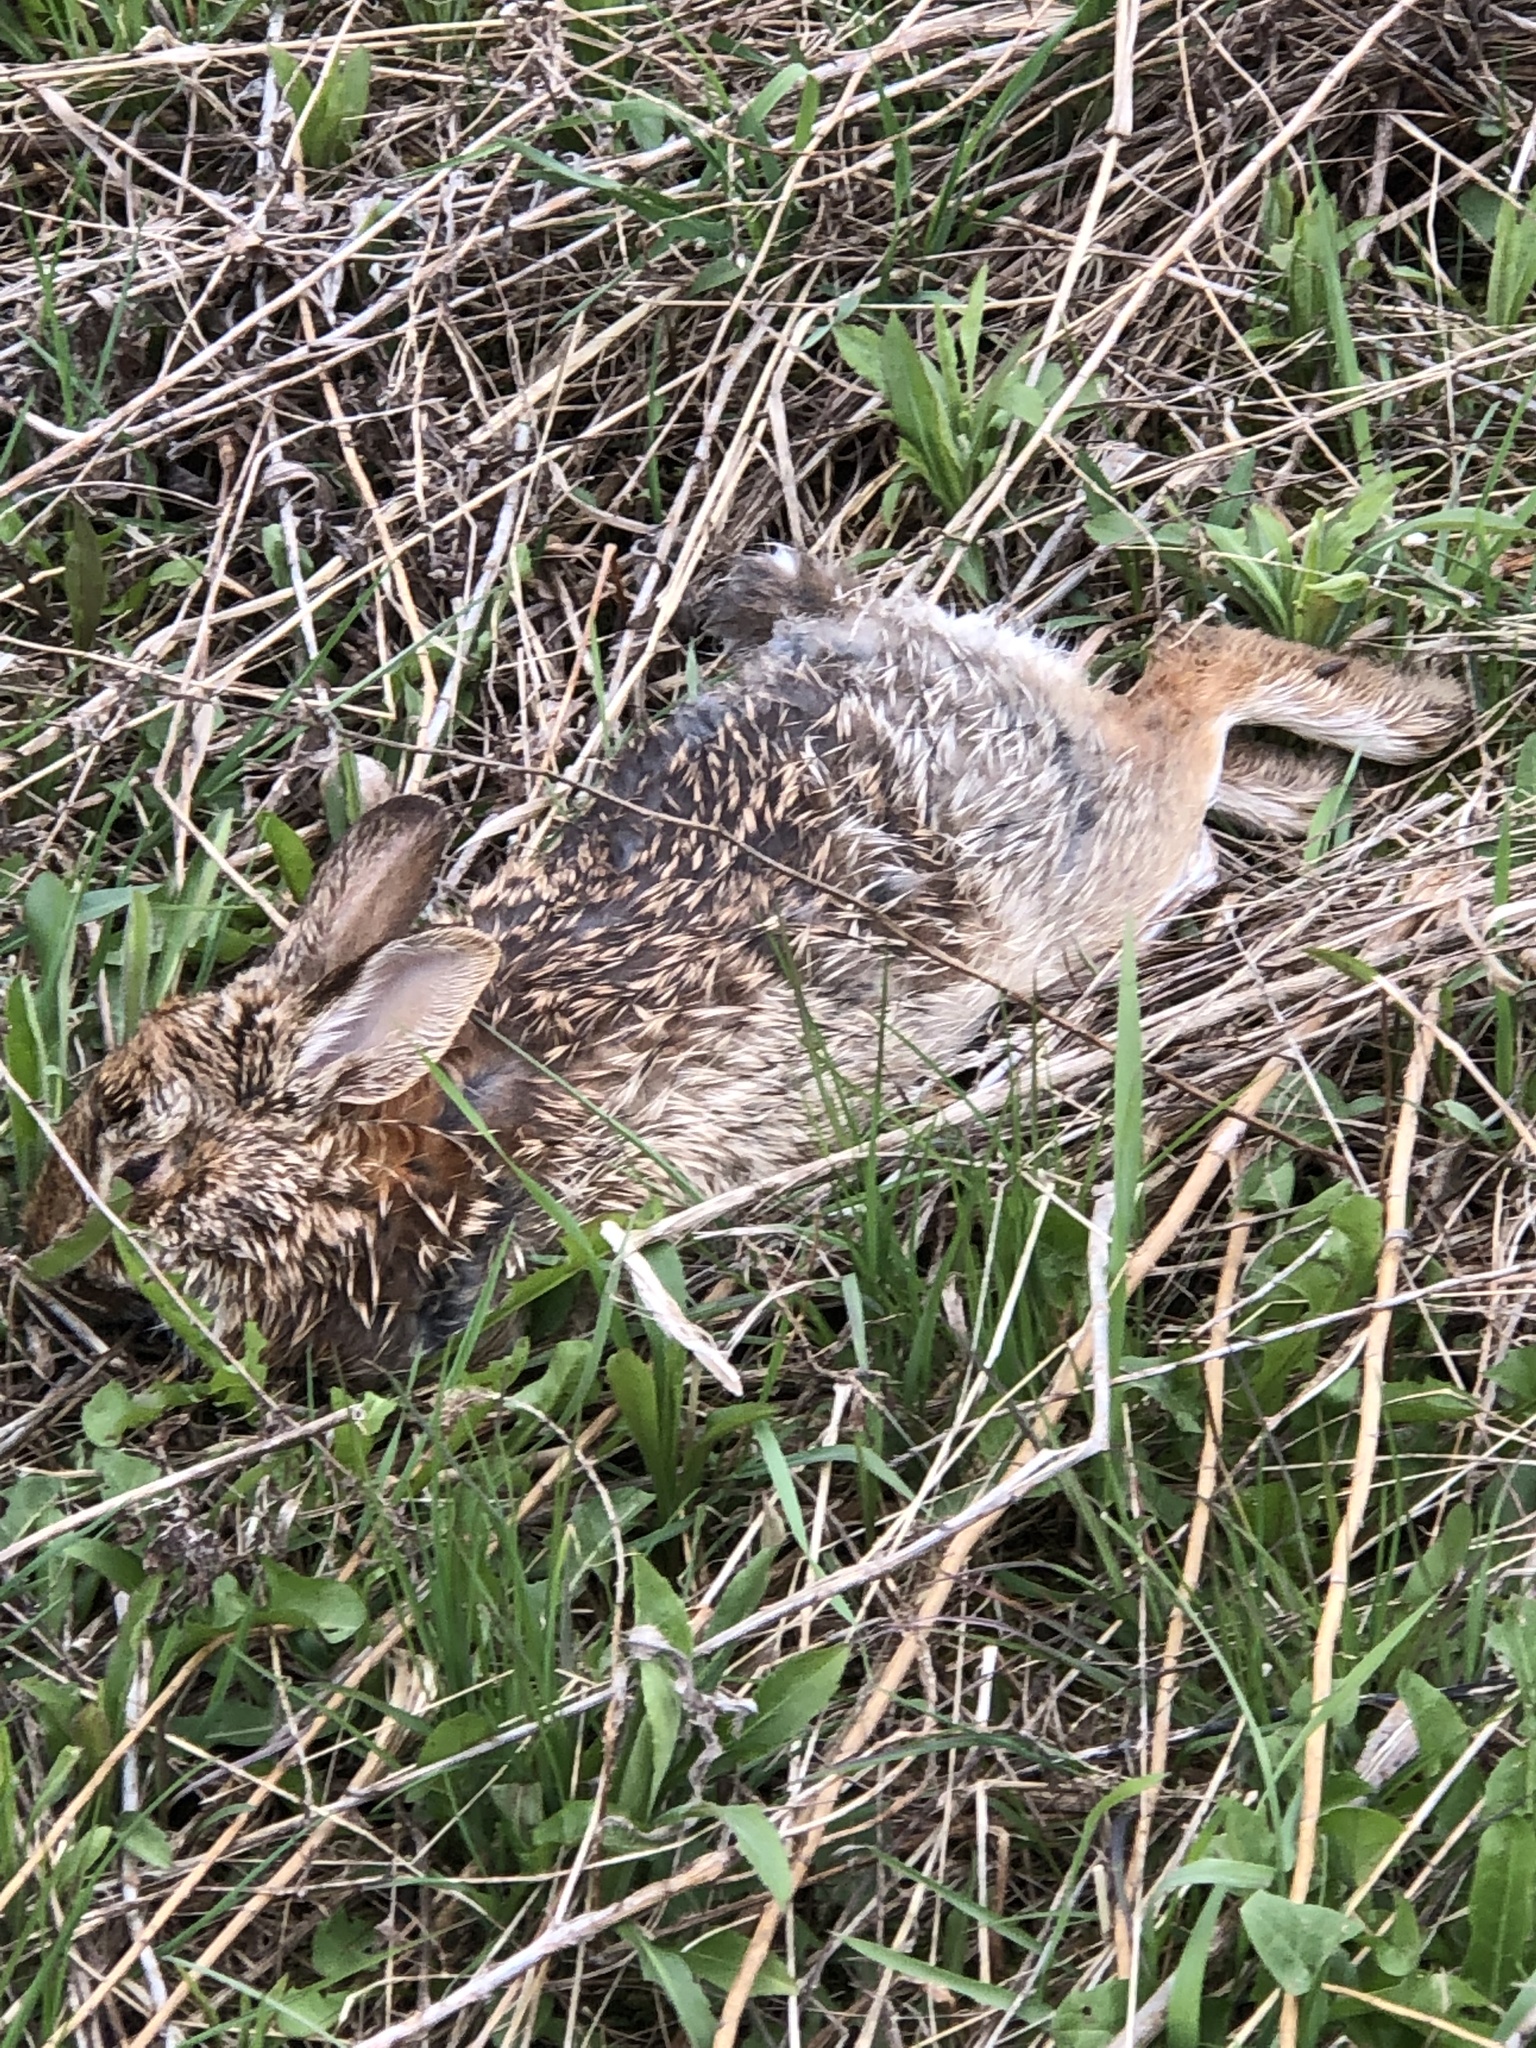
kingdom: Animalia
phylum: Chordata
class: Mammalia
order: Lagomorpha
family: Leporidae
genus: Sylvilagus
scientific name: Sylvilagus floridanus
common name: Eastern cottontail
